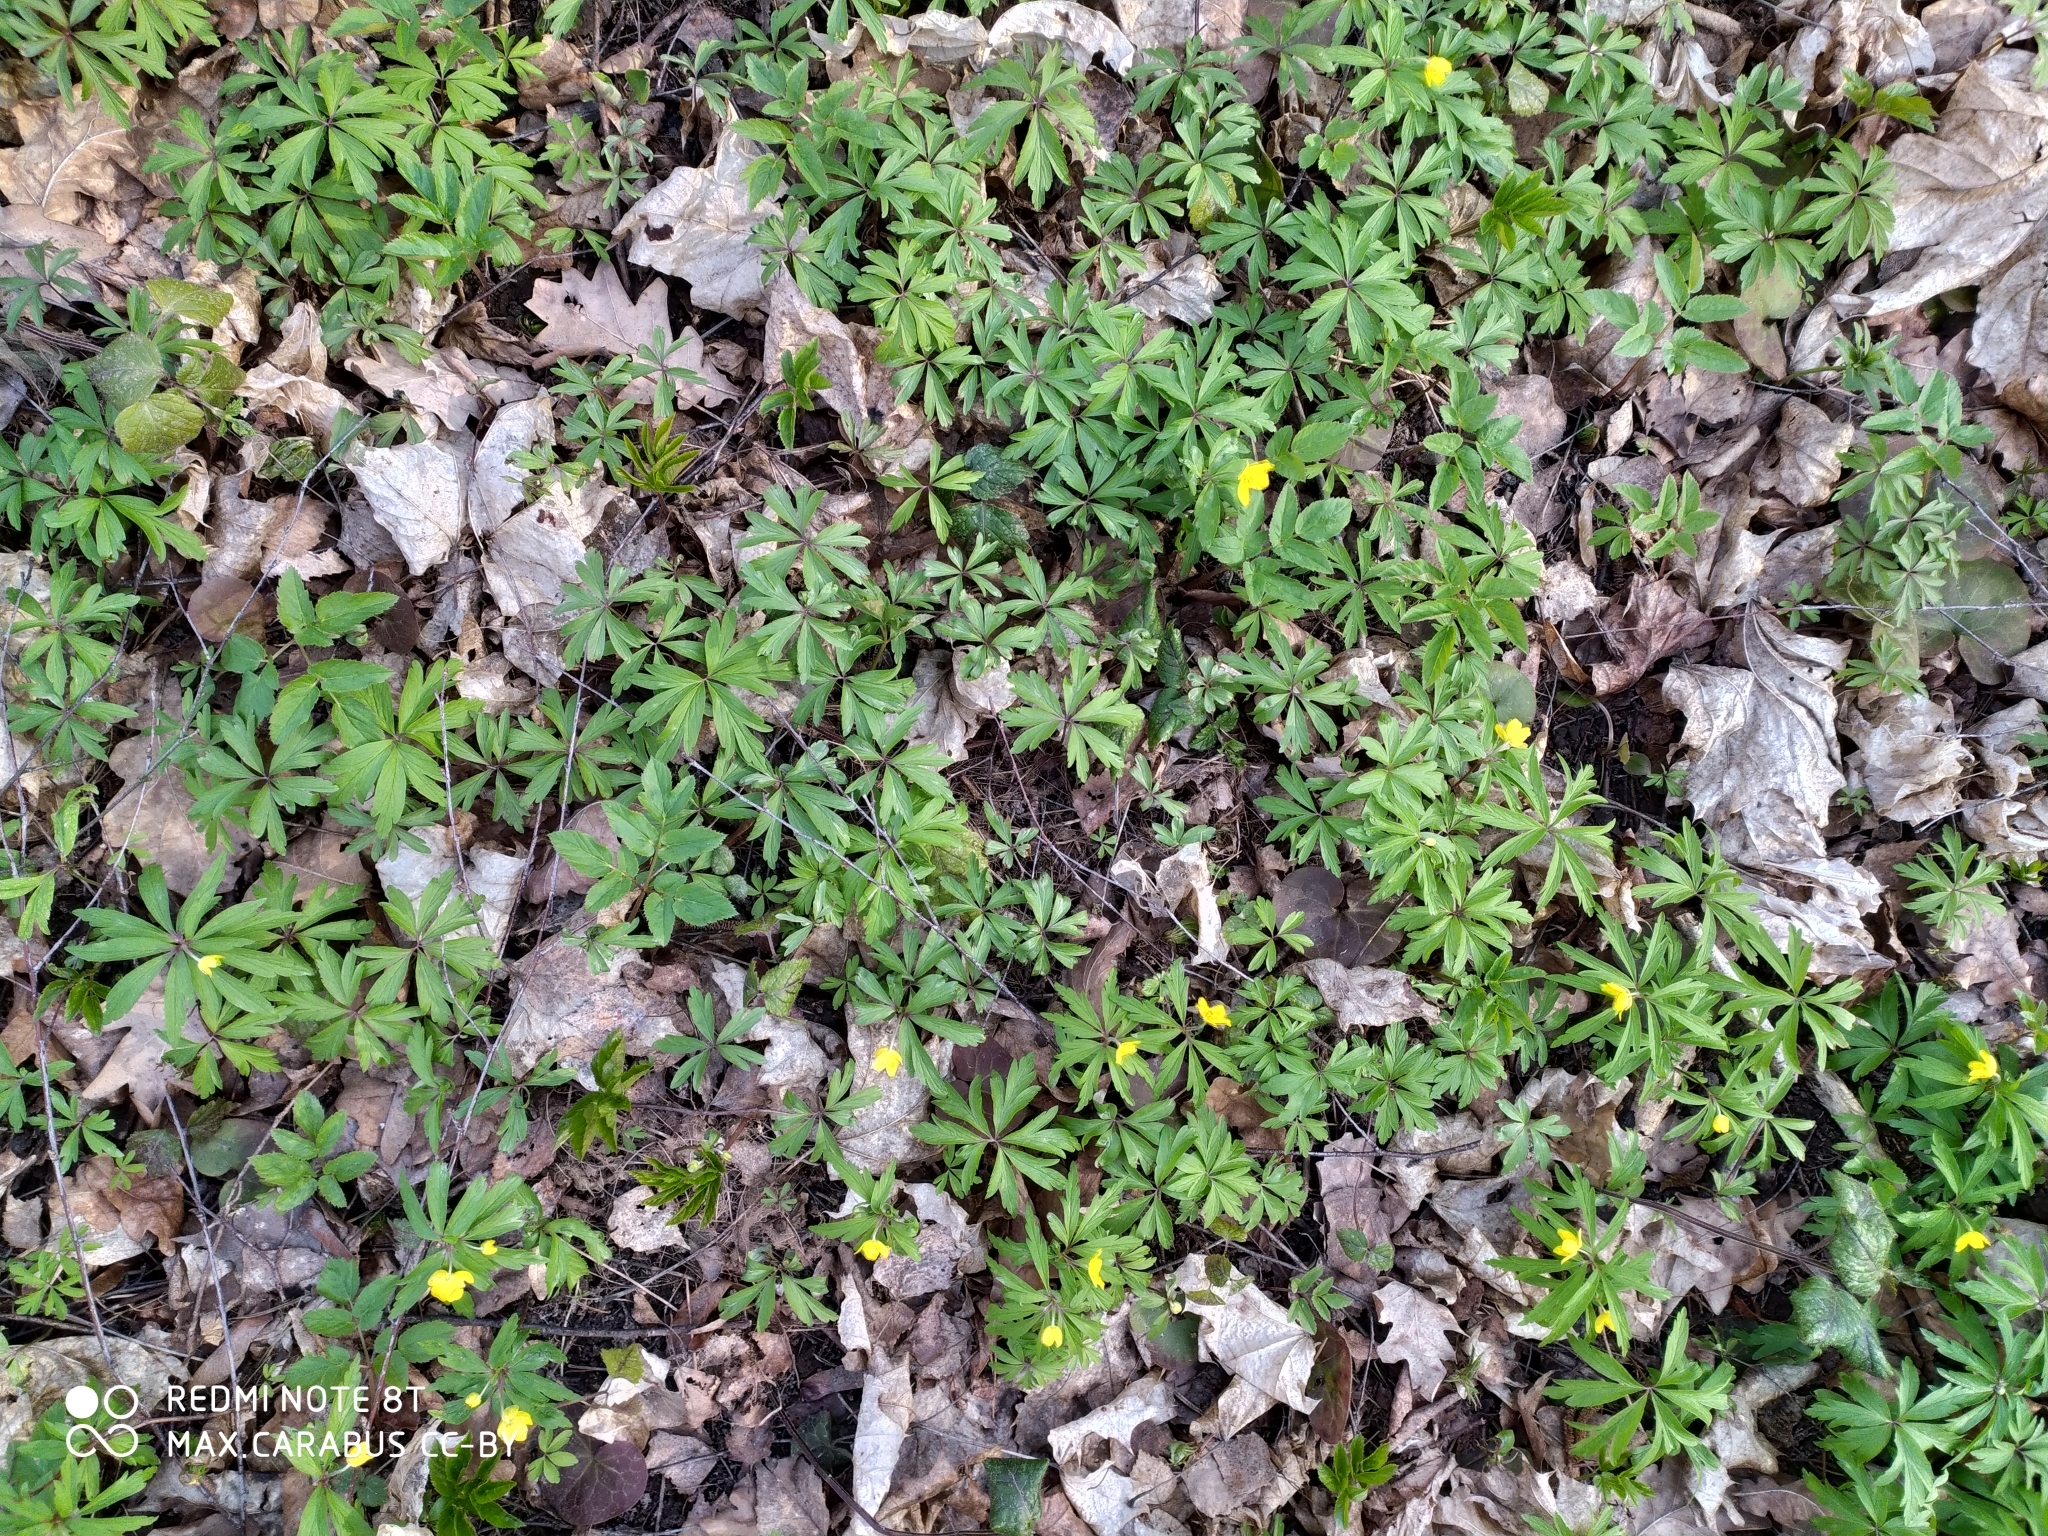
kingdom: Plantae
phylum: Tracheophyta
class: Magnoliopsida
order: Ranunculales
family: Ranunculaceae
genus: Anemone
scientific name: Anemone ranunculoides
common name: Yellow anemone
